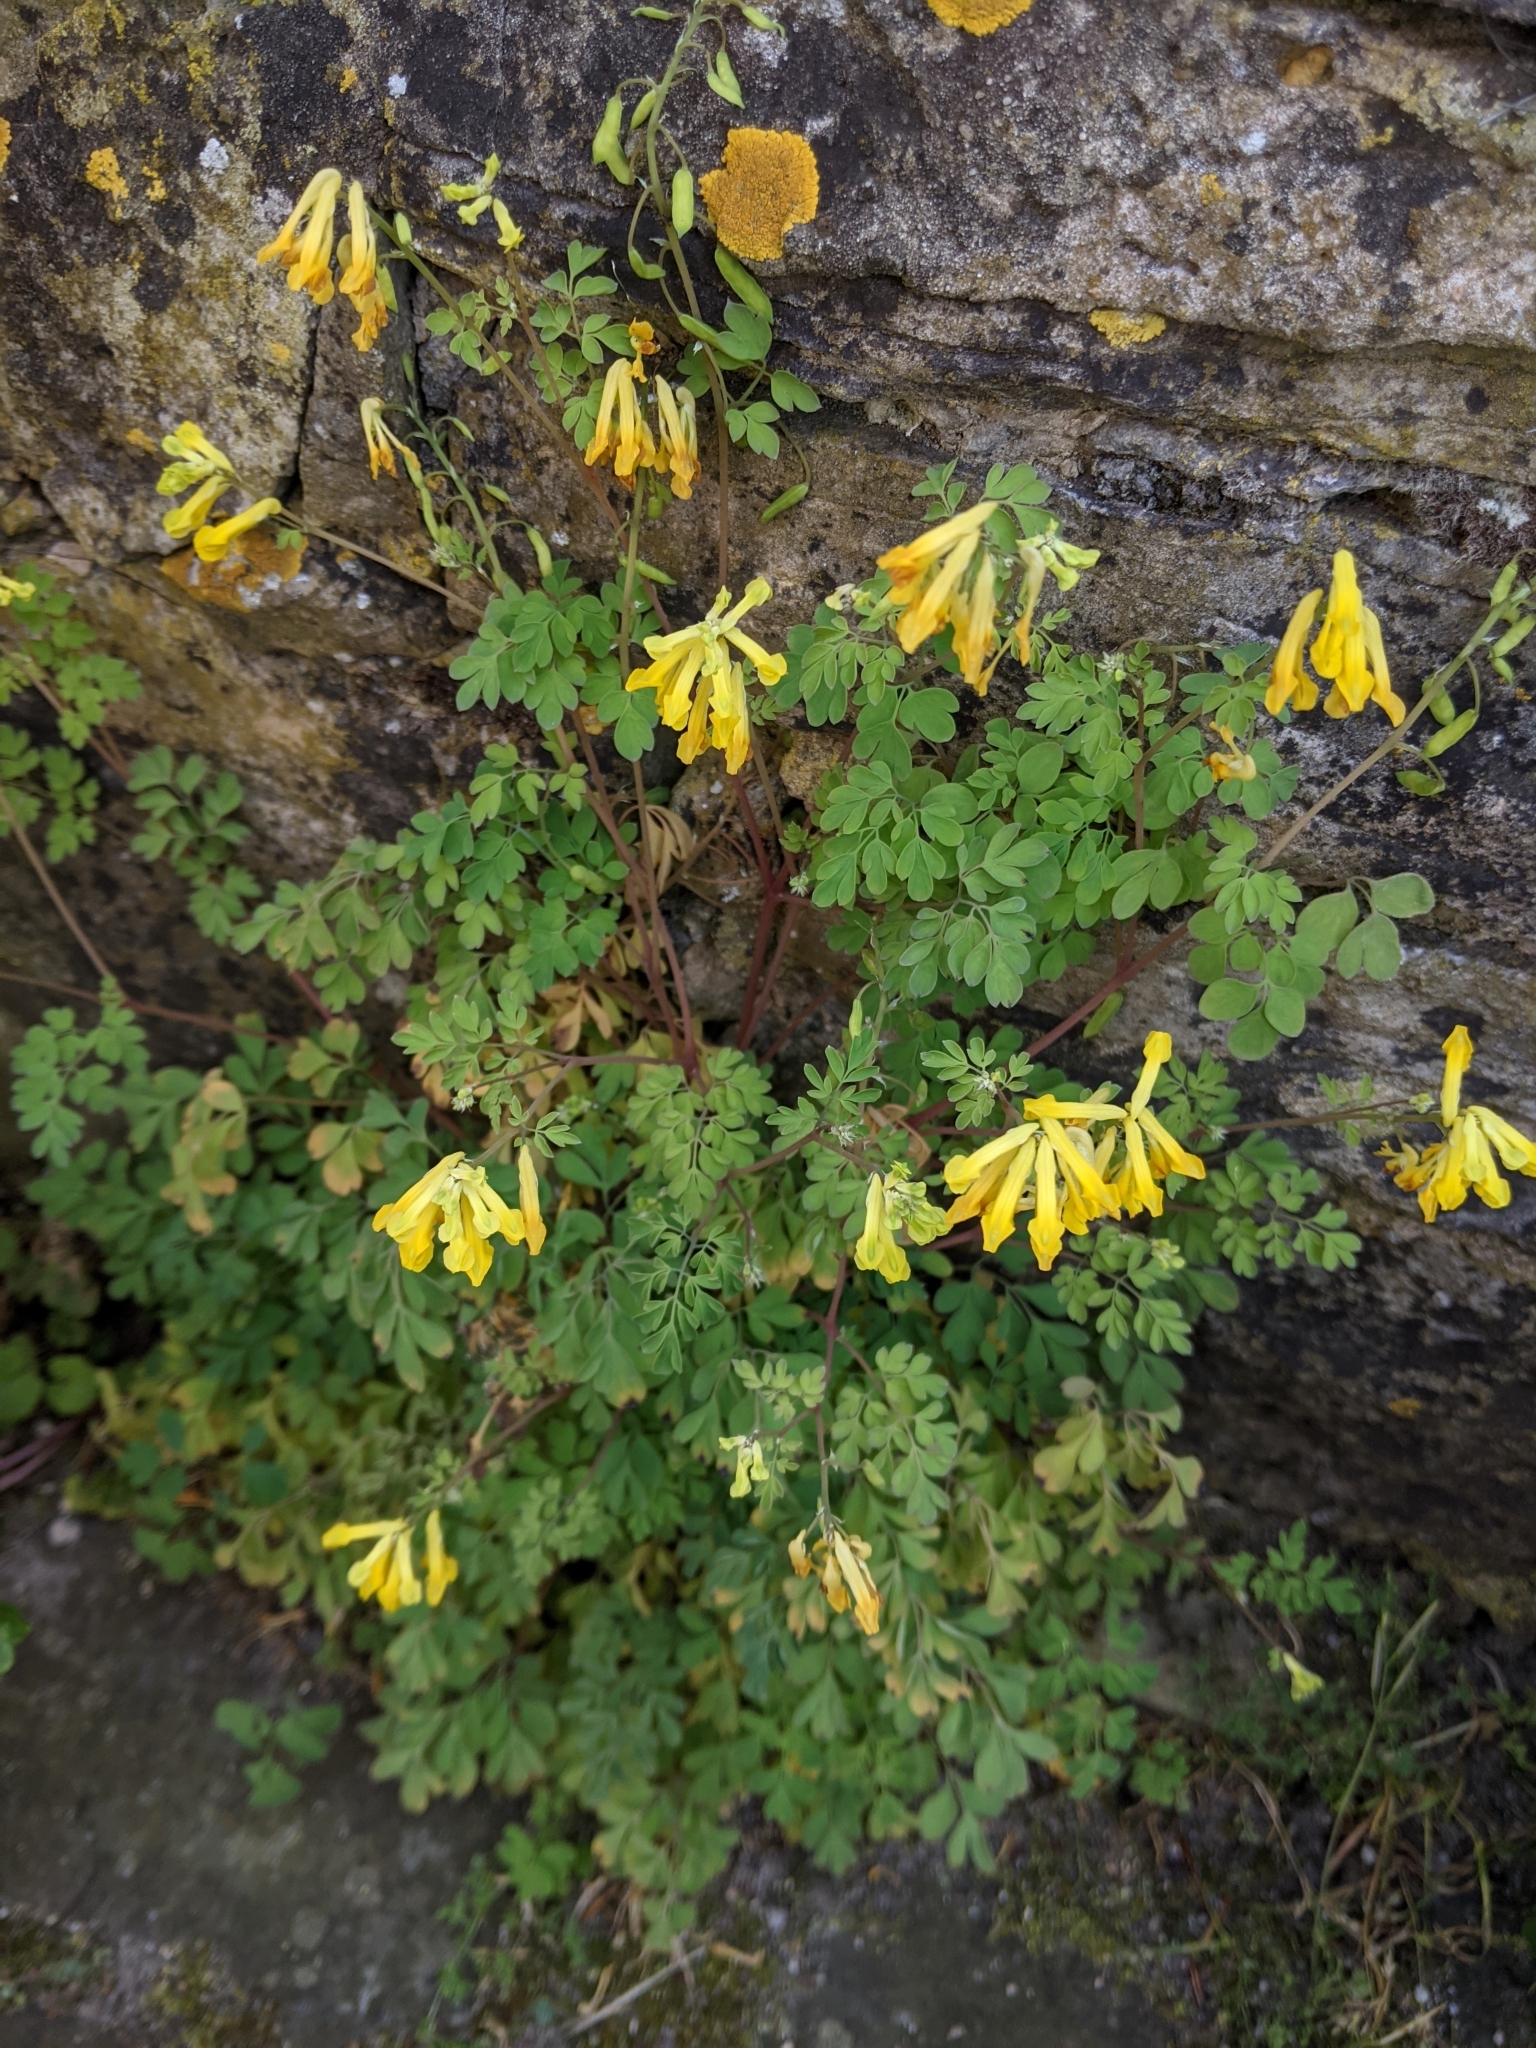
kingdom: Plantae
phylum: Tracheophyta
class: Magnoliopsida
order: Ranunculales
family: Papaveraceae
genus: Pseudofumaria
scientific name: Pseudofumaria lutea
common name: Yellow corydalis
